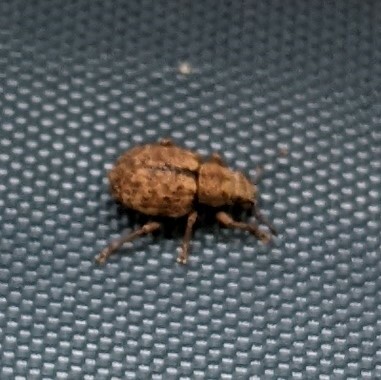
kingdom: Animalia
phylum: Arthropoda
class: Insecta
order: Coleoptera
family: Curculionidae
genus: Strophosoma
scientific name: Strophosoma melanogrammum
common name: Weevil
